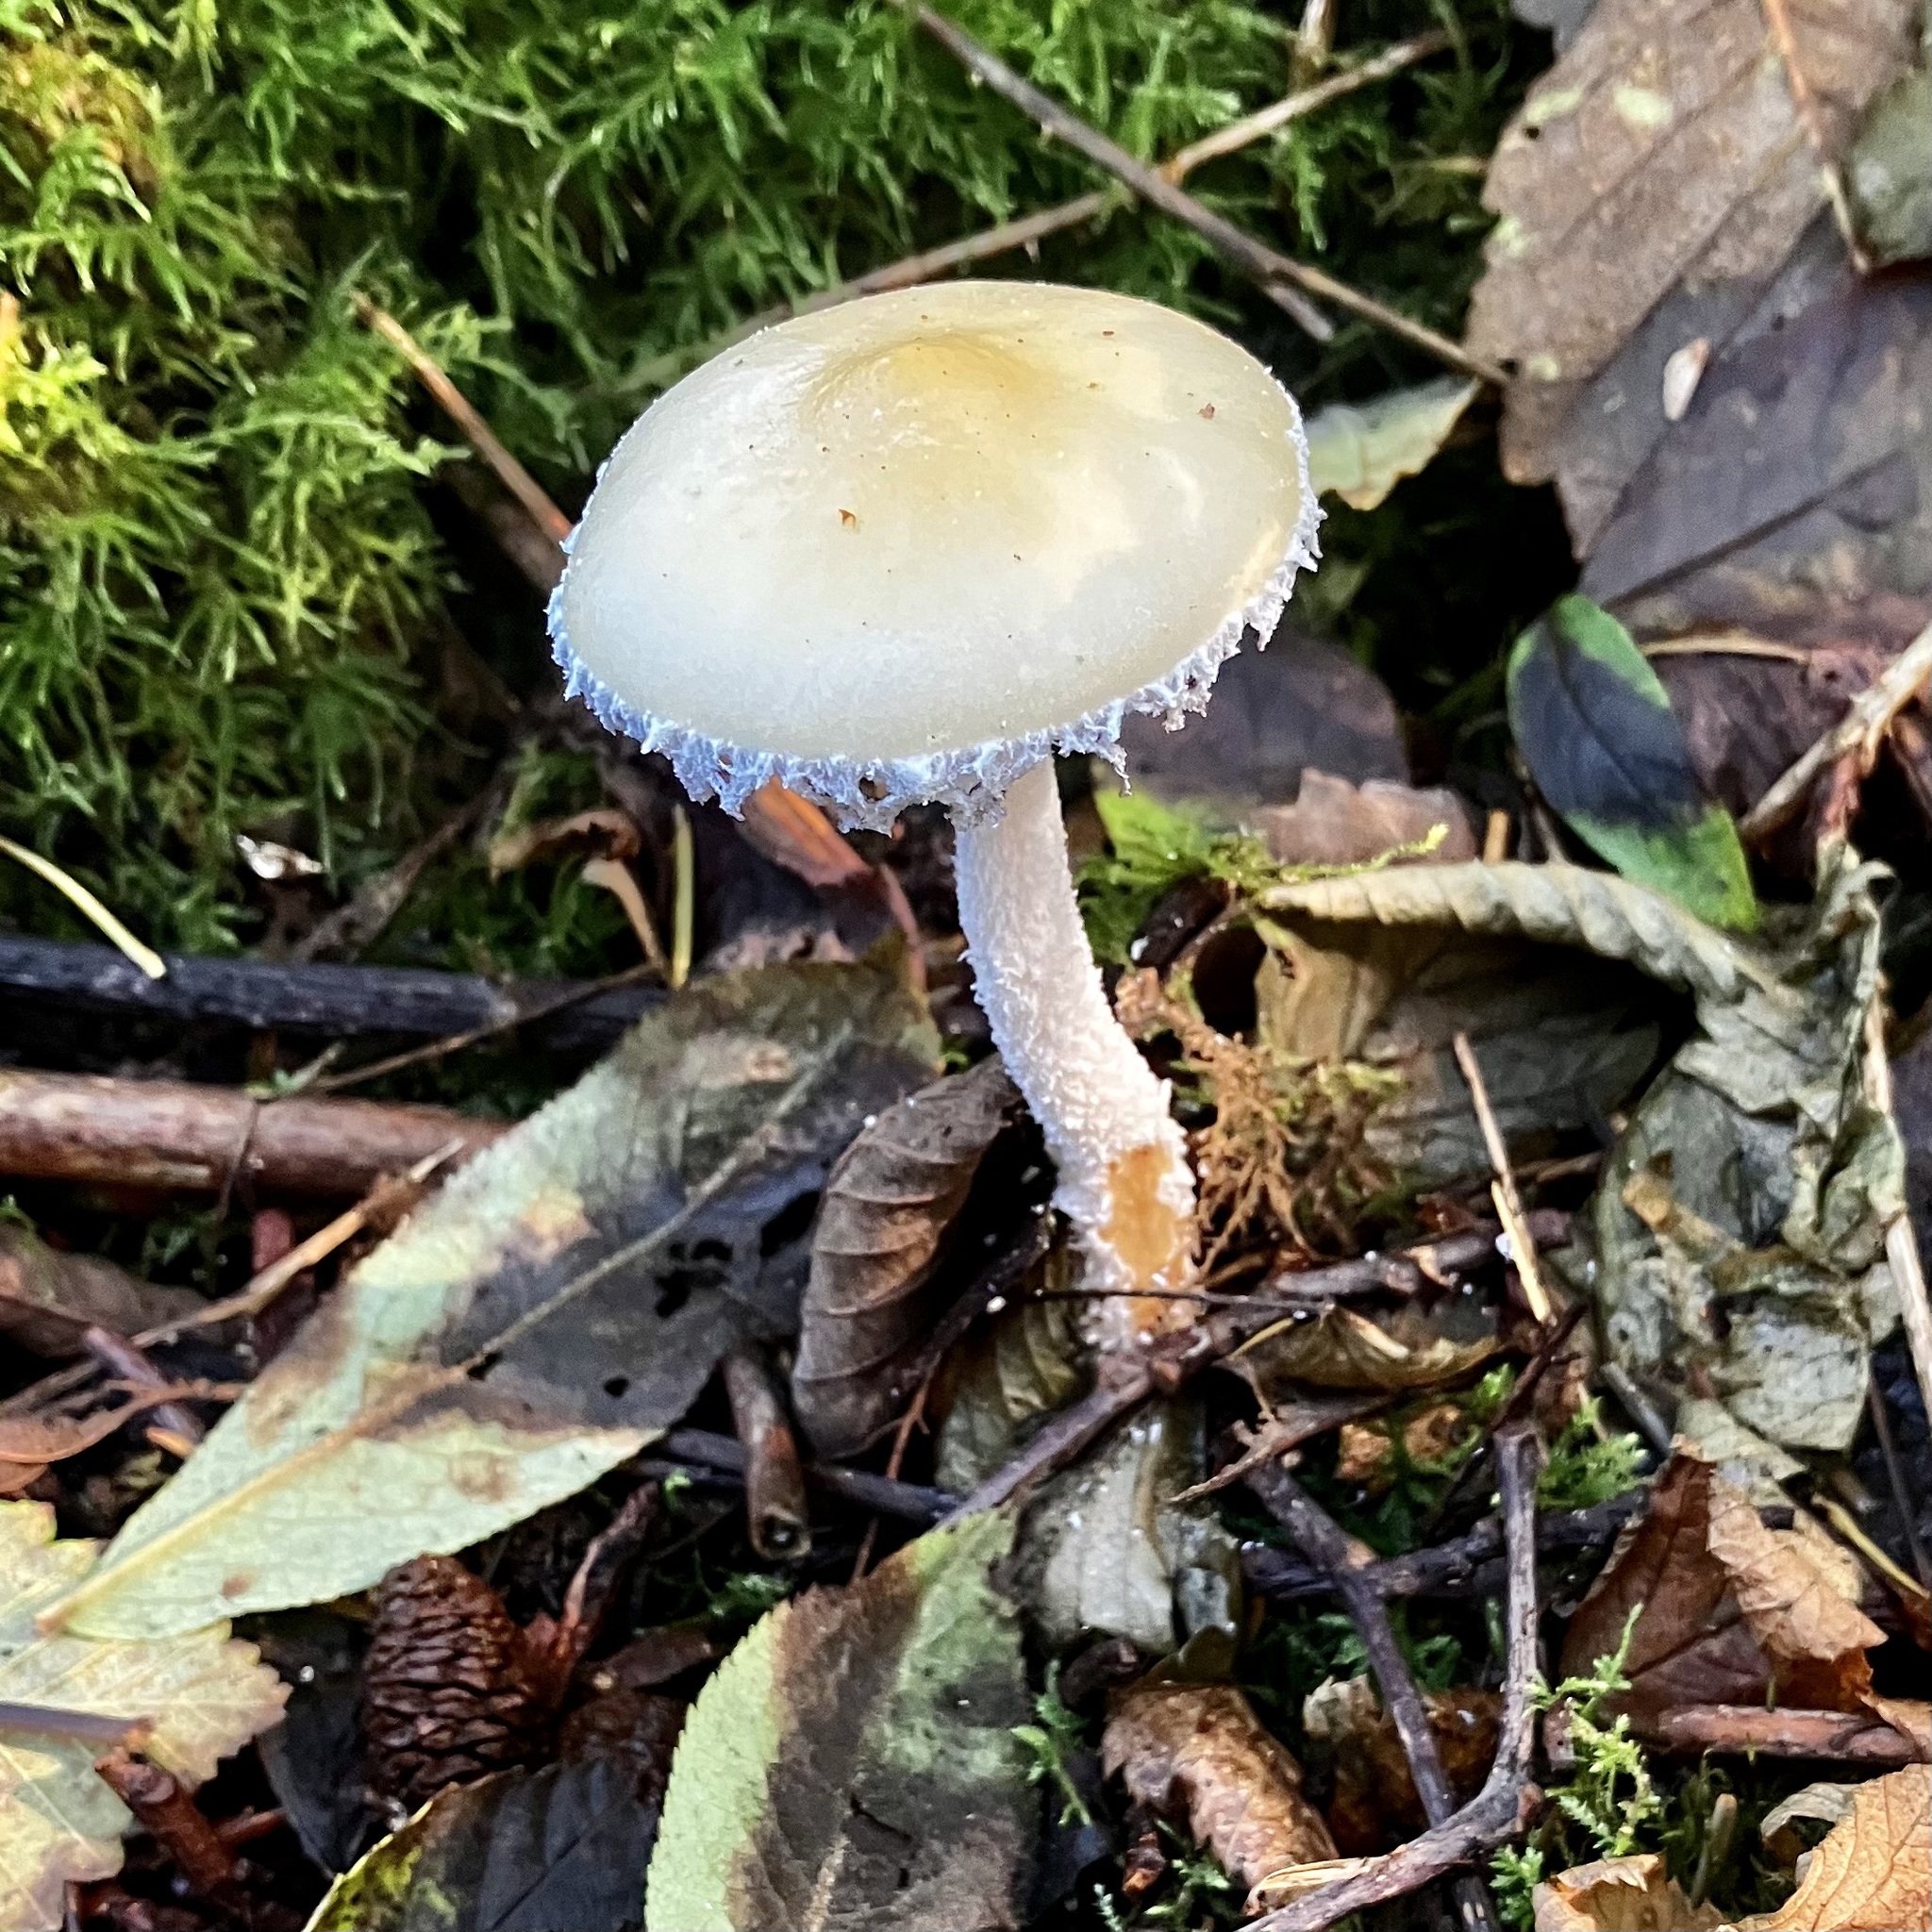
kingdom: Fungi
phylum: Basidiomycota
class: Agaricomycetes
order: Agaricales
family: Strophariaceae
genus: Stropharia
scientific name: Stropharia ambigua
